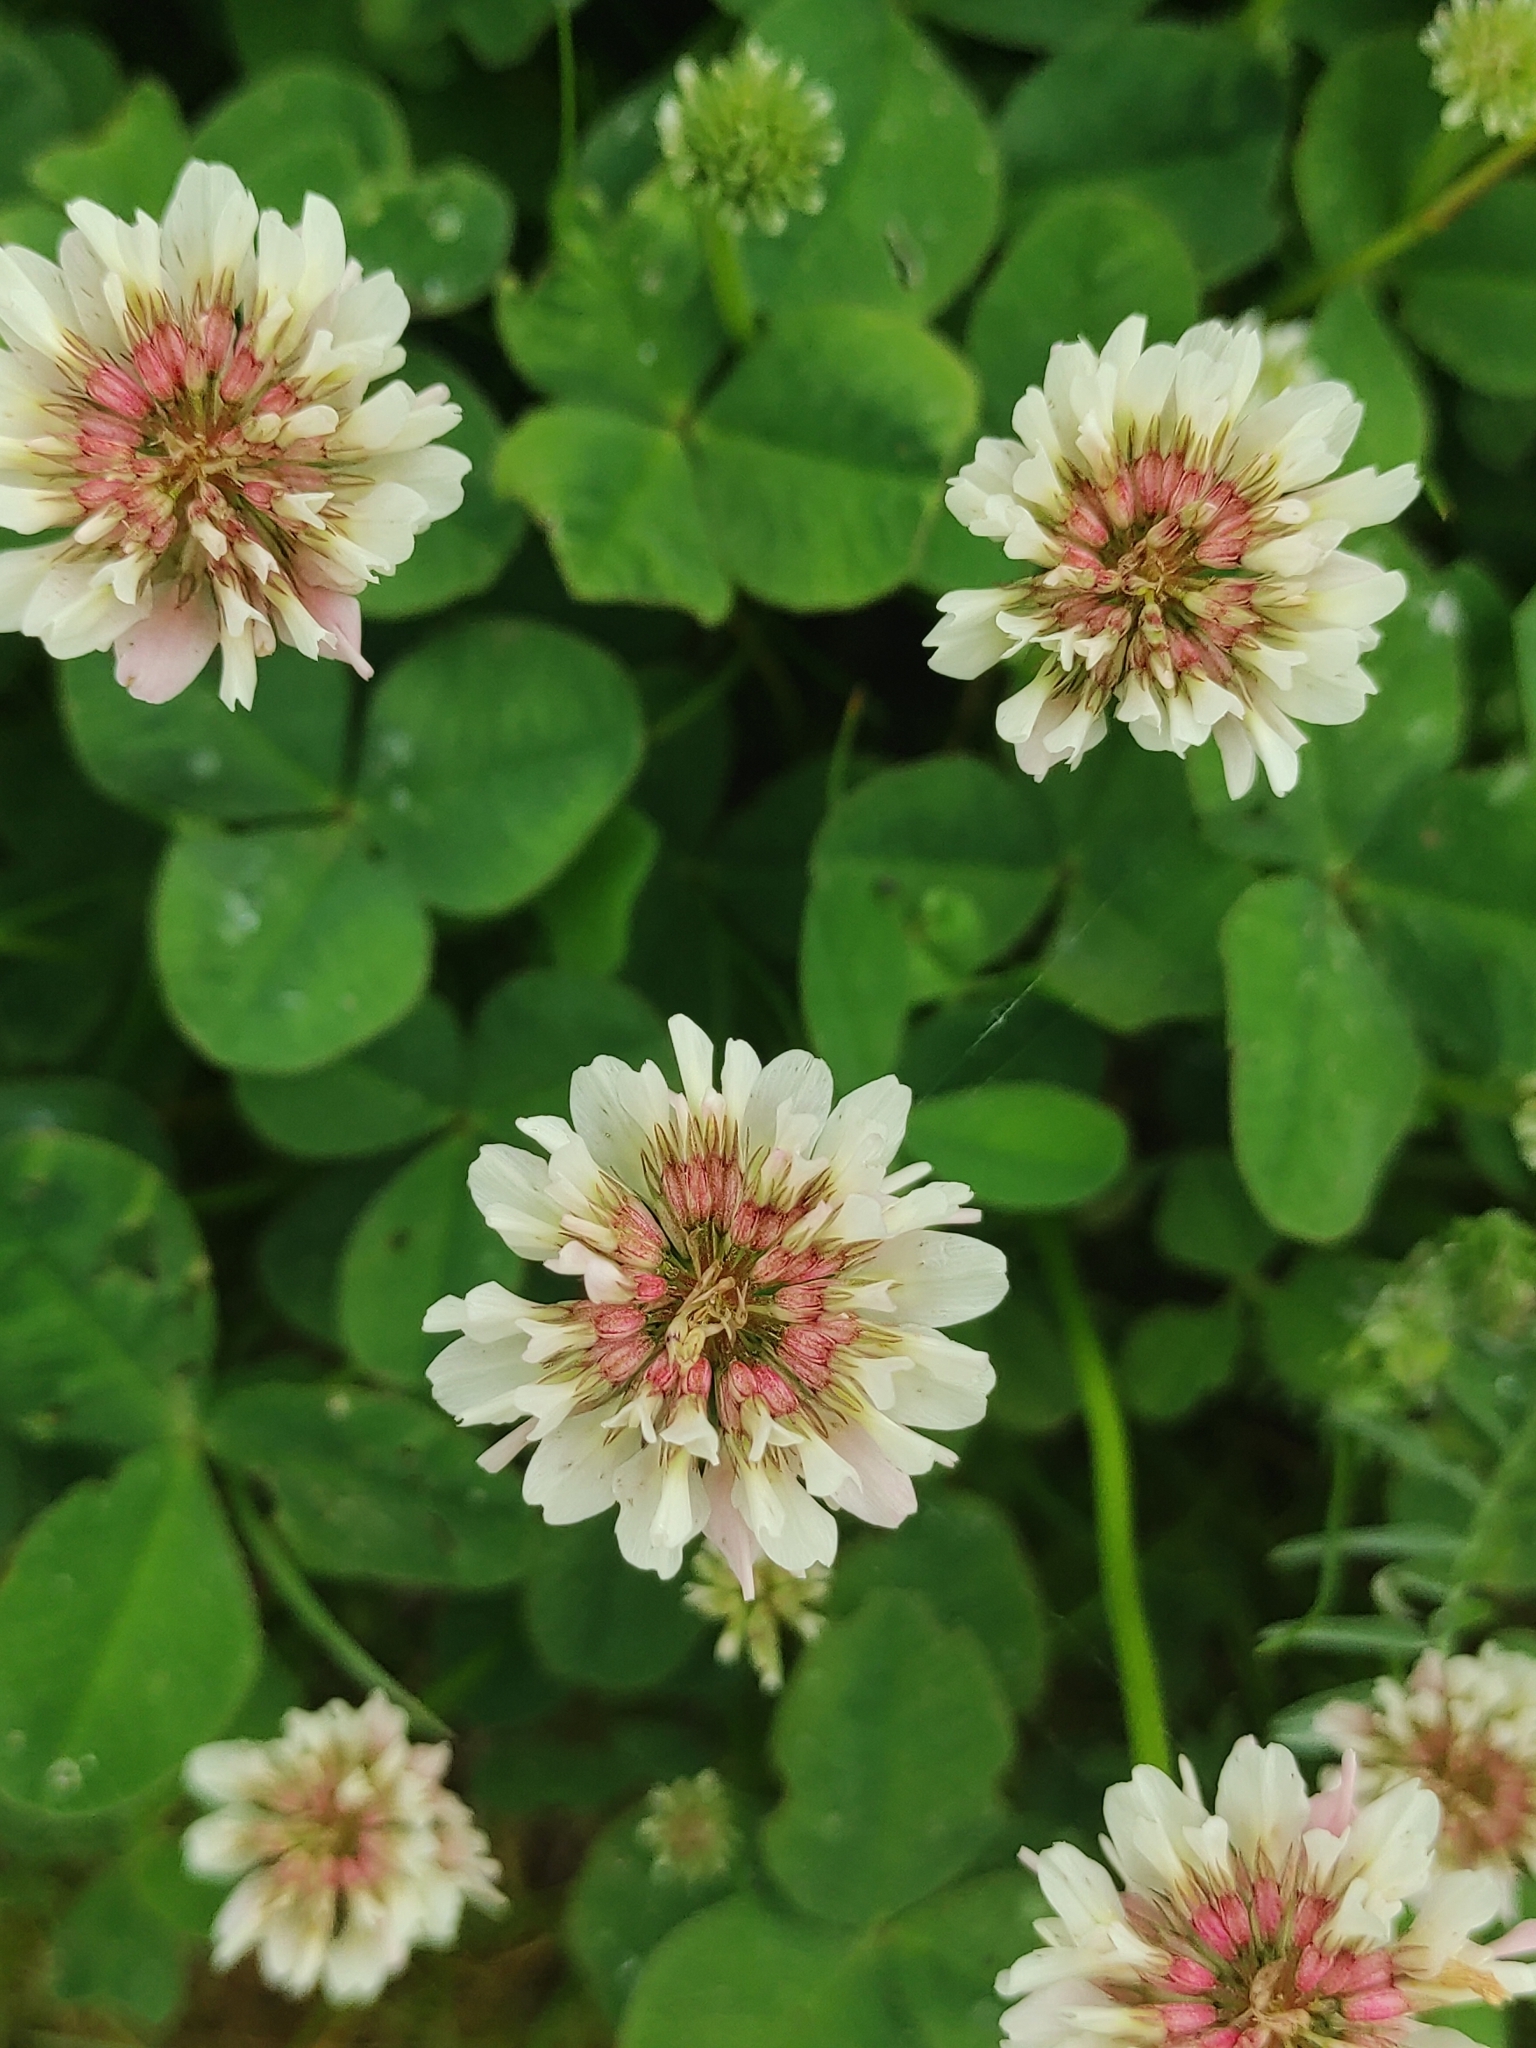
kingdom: Plantae
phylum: Tracheophyta
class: Magnoliopsida
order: Fabales
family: Fabaceae
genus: Trifolium
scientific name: Trifolium repens
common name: White clover
